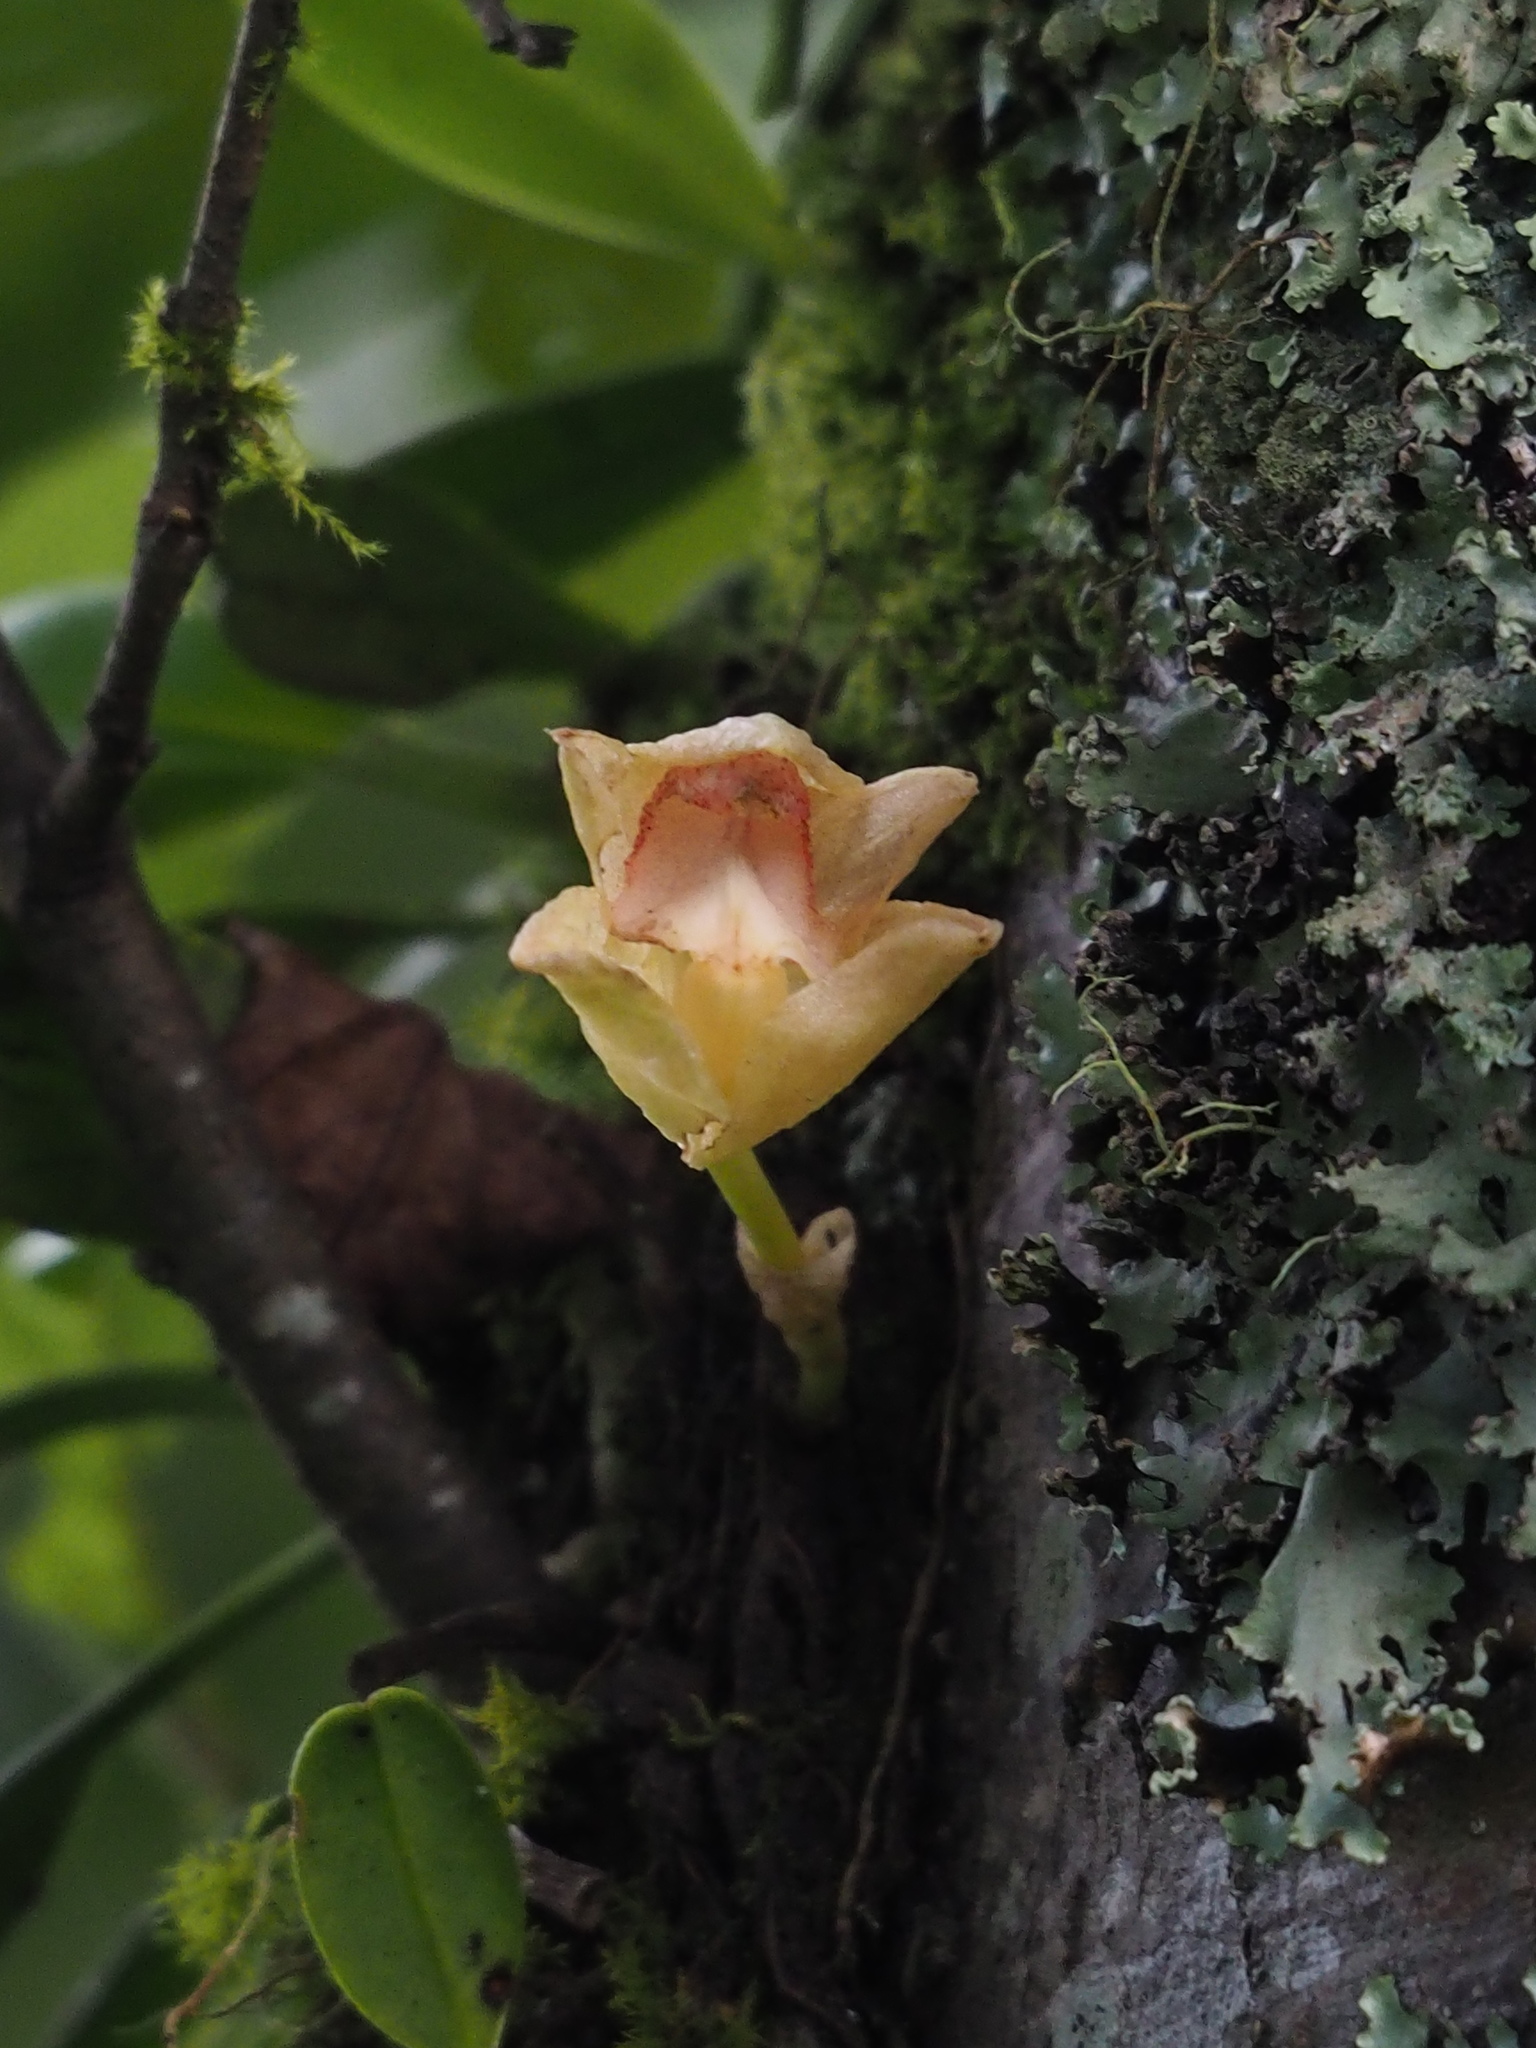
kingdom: Plantae
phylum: Tracheophyta
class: Liliopsida
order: Asparagales
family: Orchidaceae
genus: Bulbophyllum
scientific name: Bulbophyllum pectinatum
